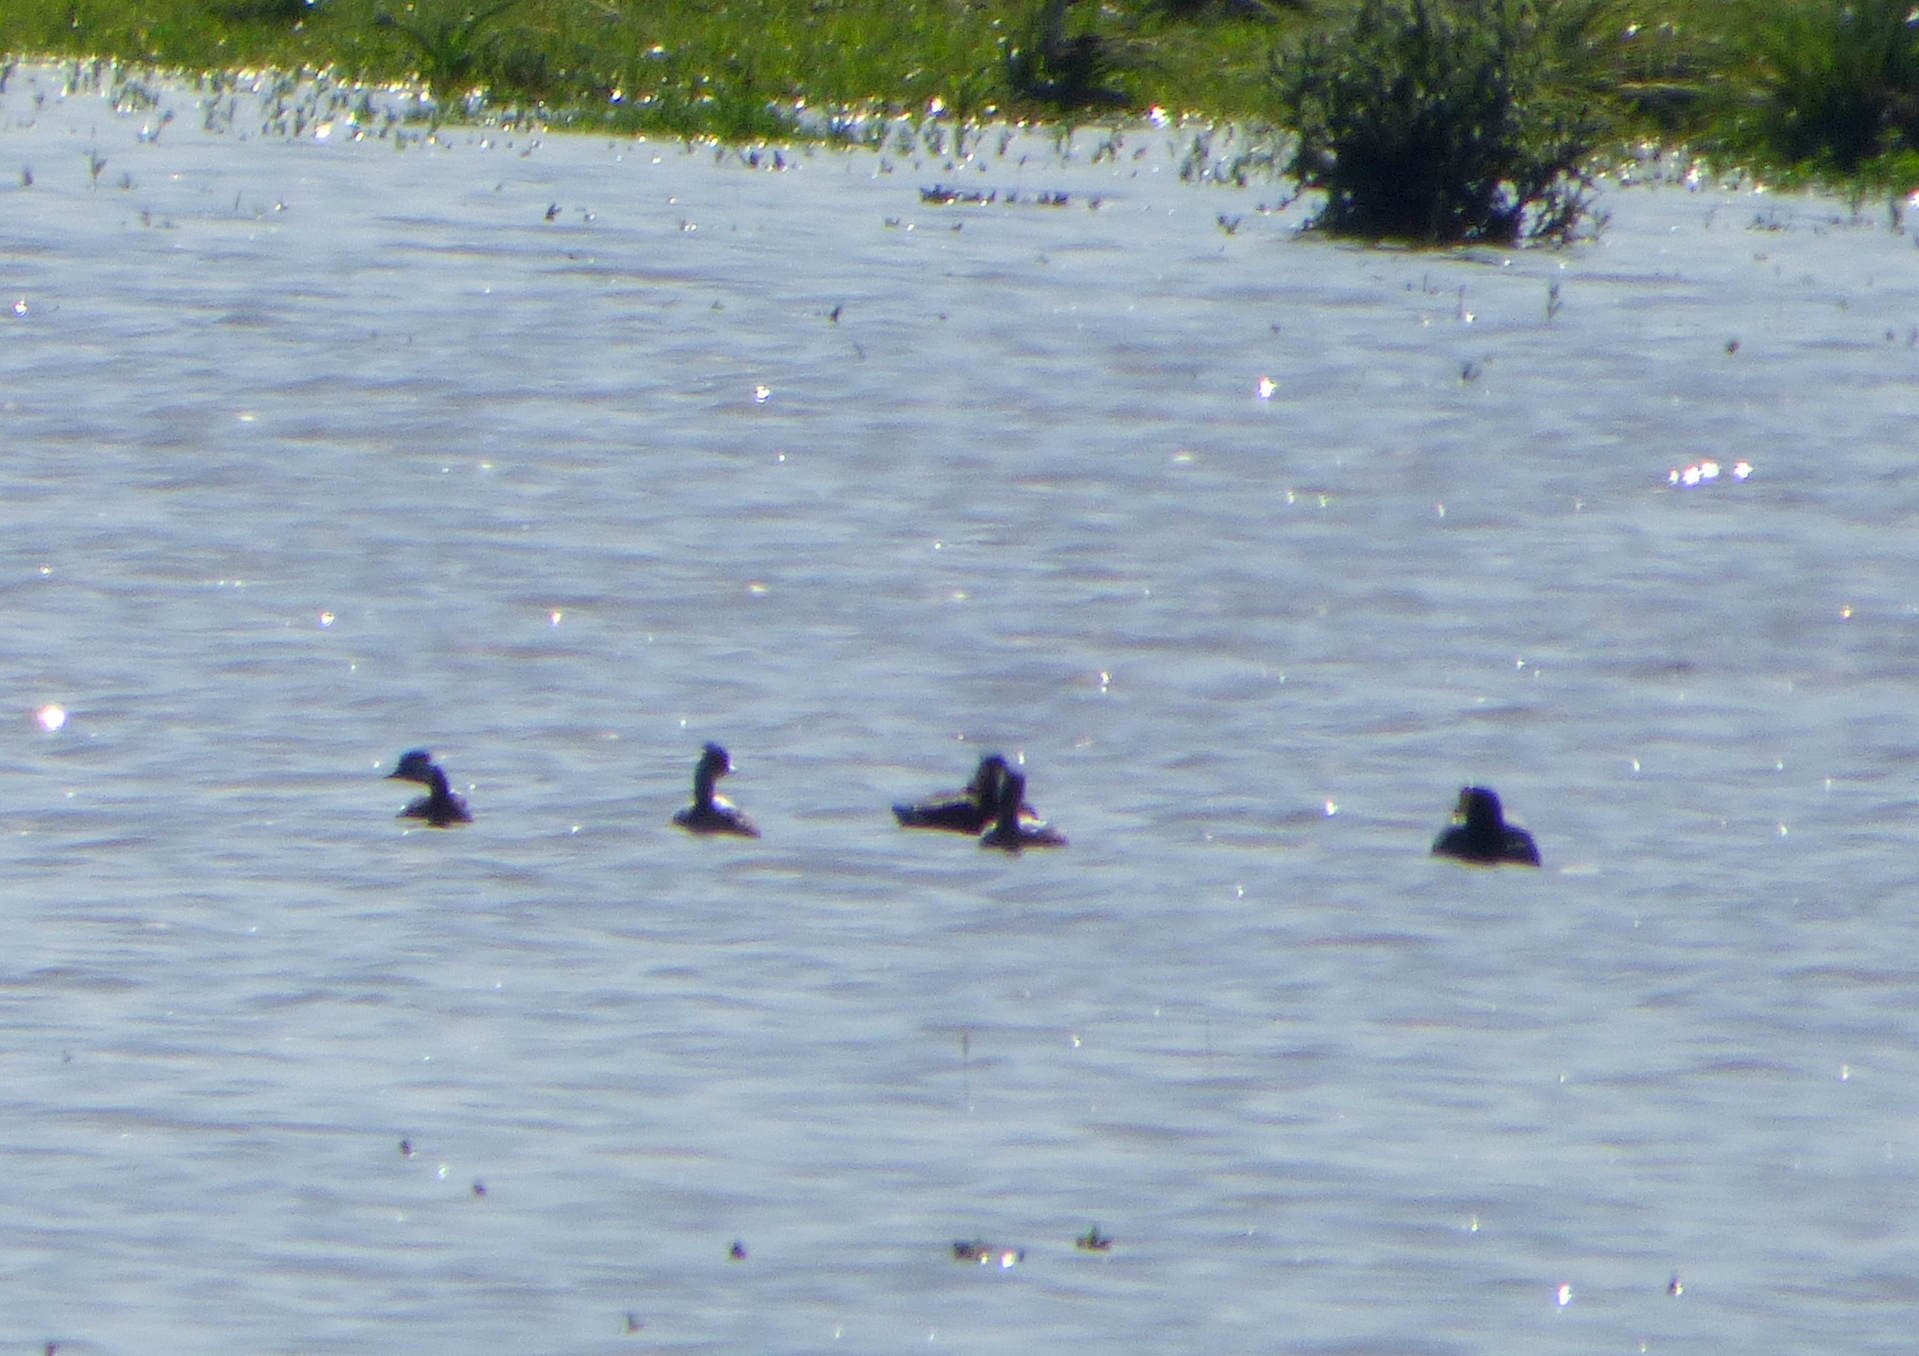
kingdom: Animalia
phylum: Chordata
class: Aves
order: Podicipediformes
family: Podicipedidae
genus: Rollandia
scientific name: Rollandia rolland
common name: White-tufted grebe
